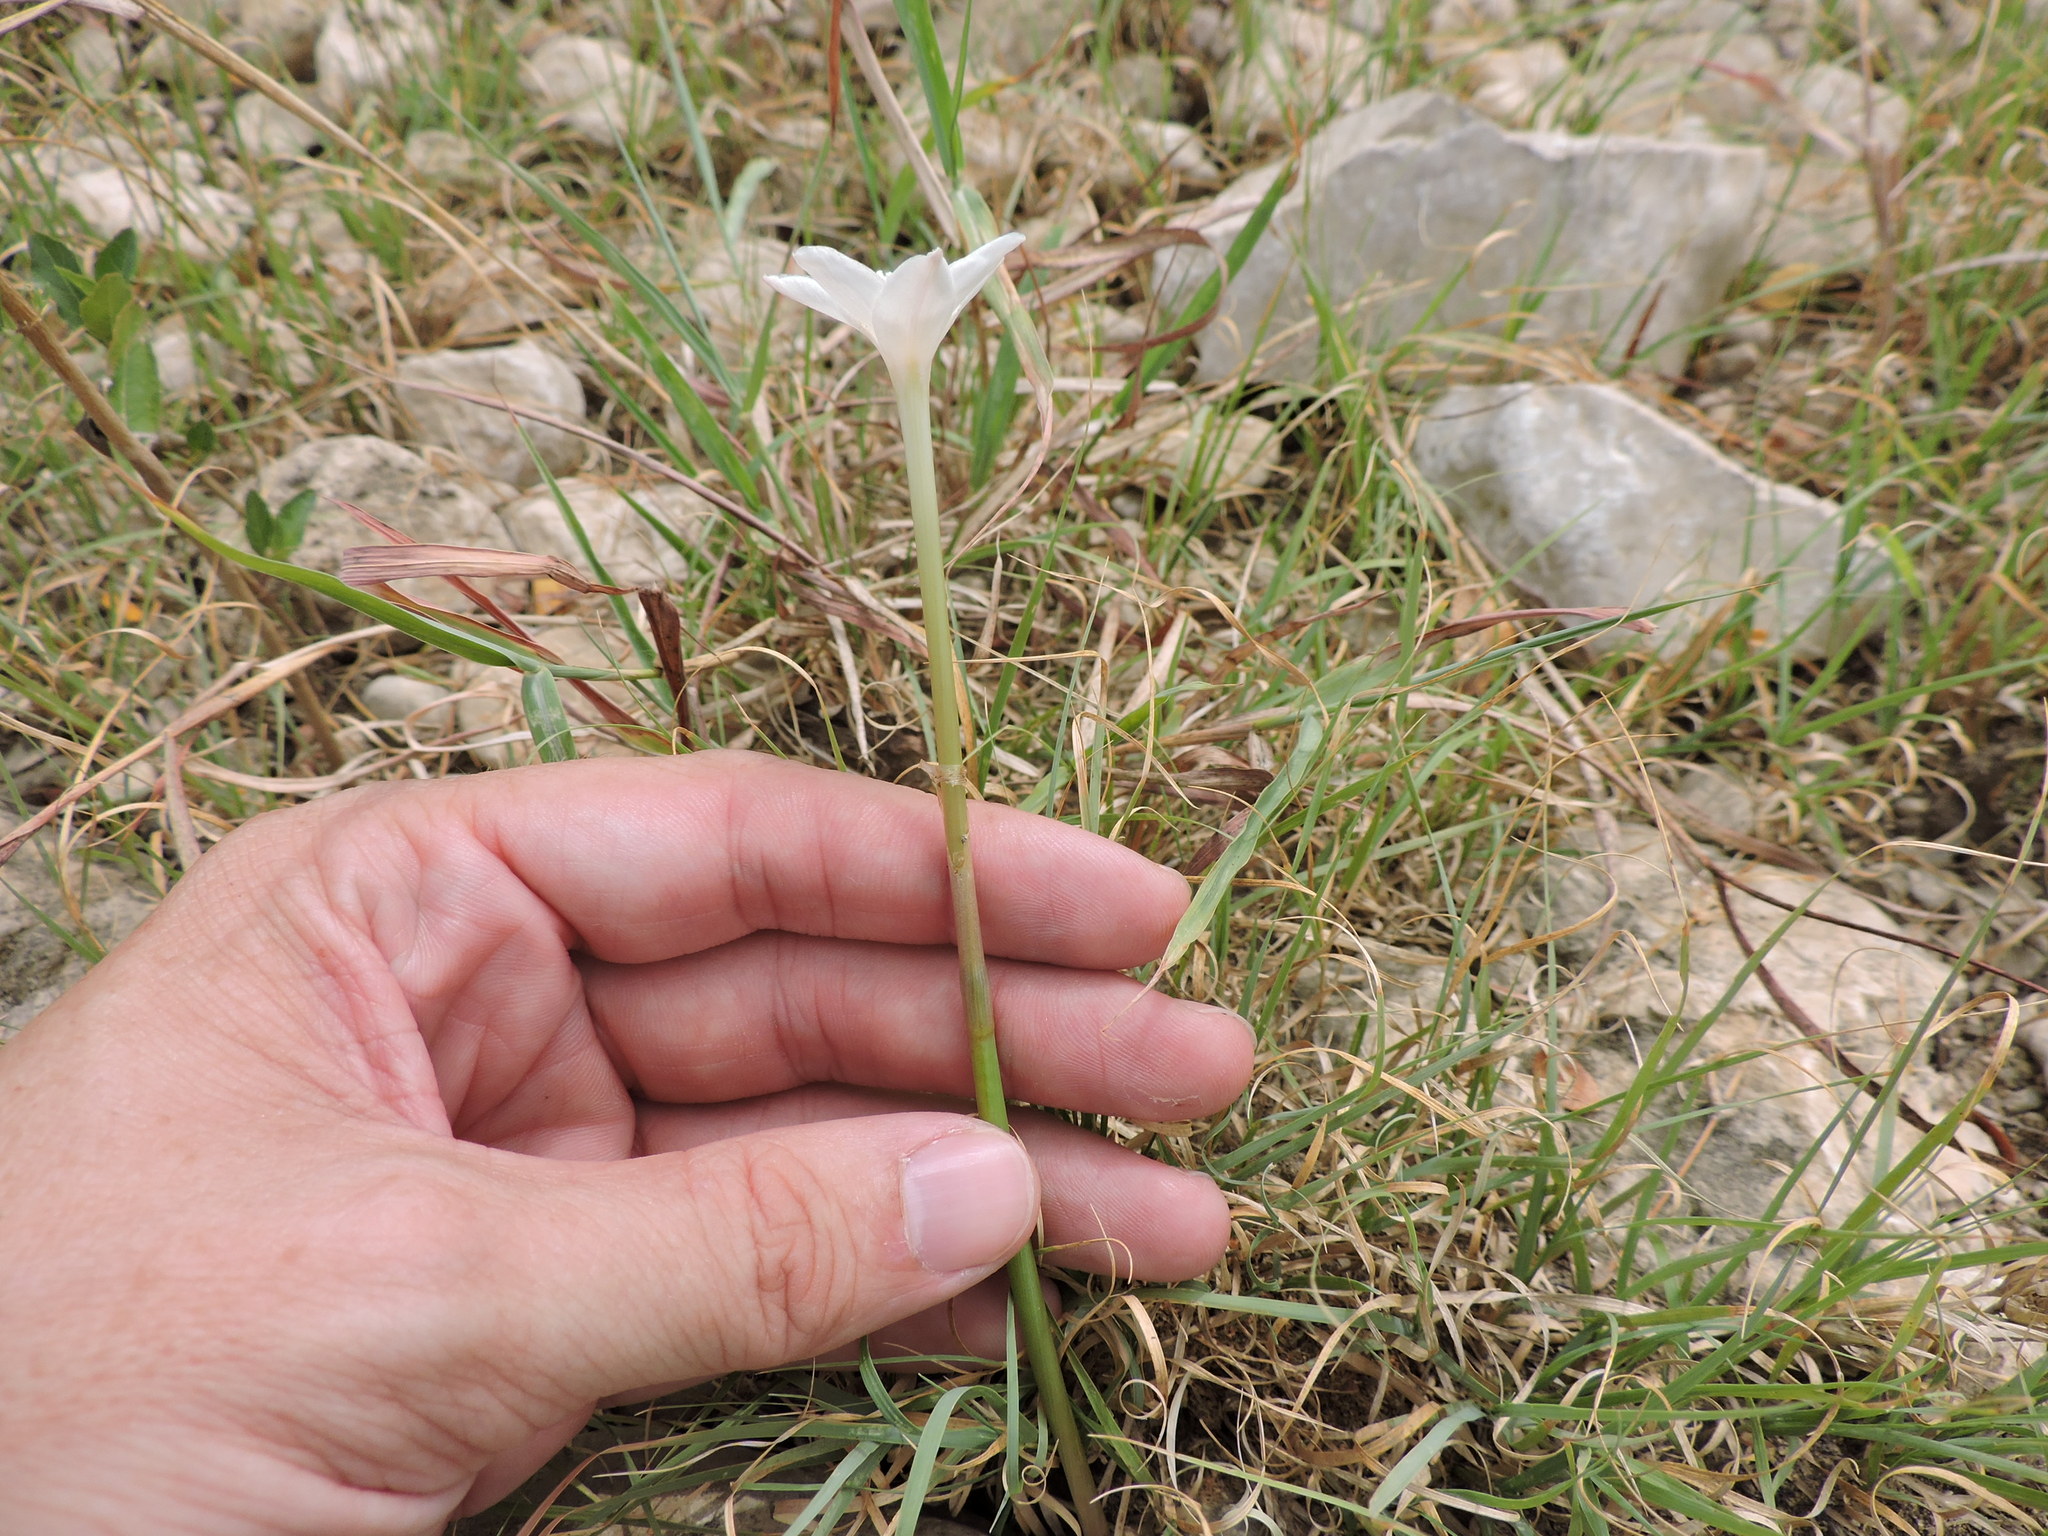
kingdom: Plantae
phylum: Tracheophyta
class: Liliopsida
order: Asparagales
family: Amaryllidaceae
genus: Zephyranthes
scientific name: Zephyranthes chlorosolen
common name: Evening rain-lily
